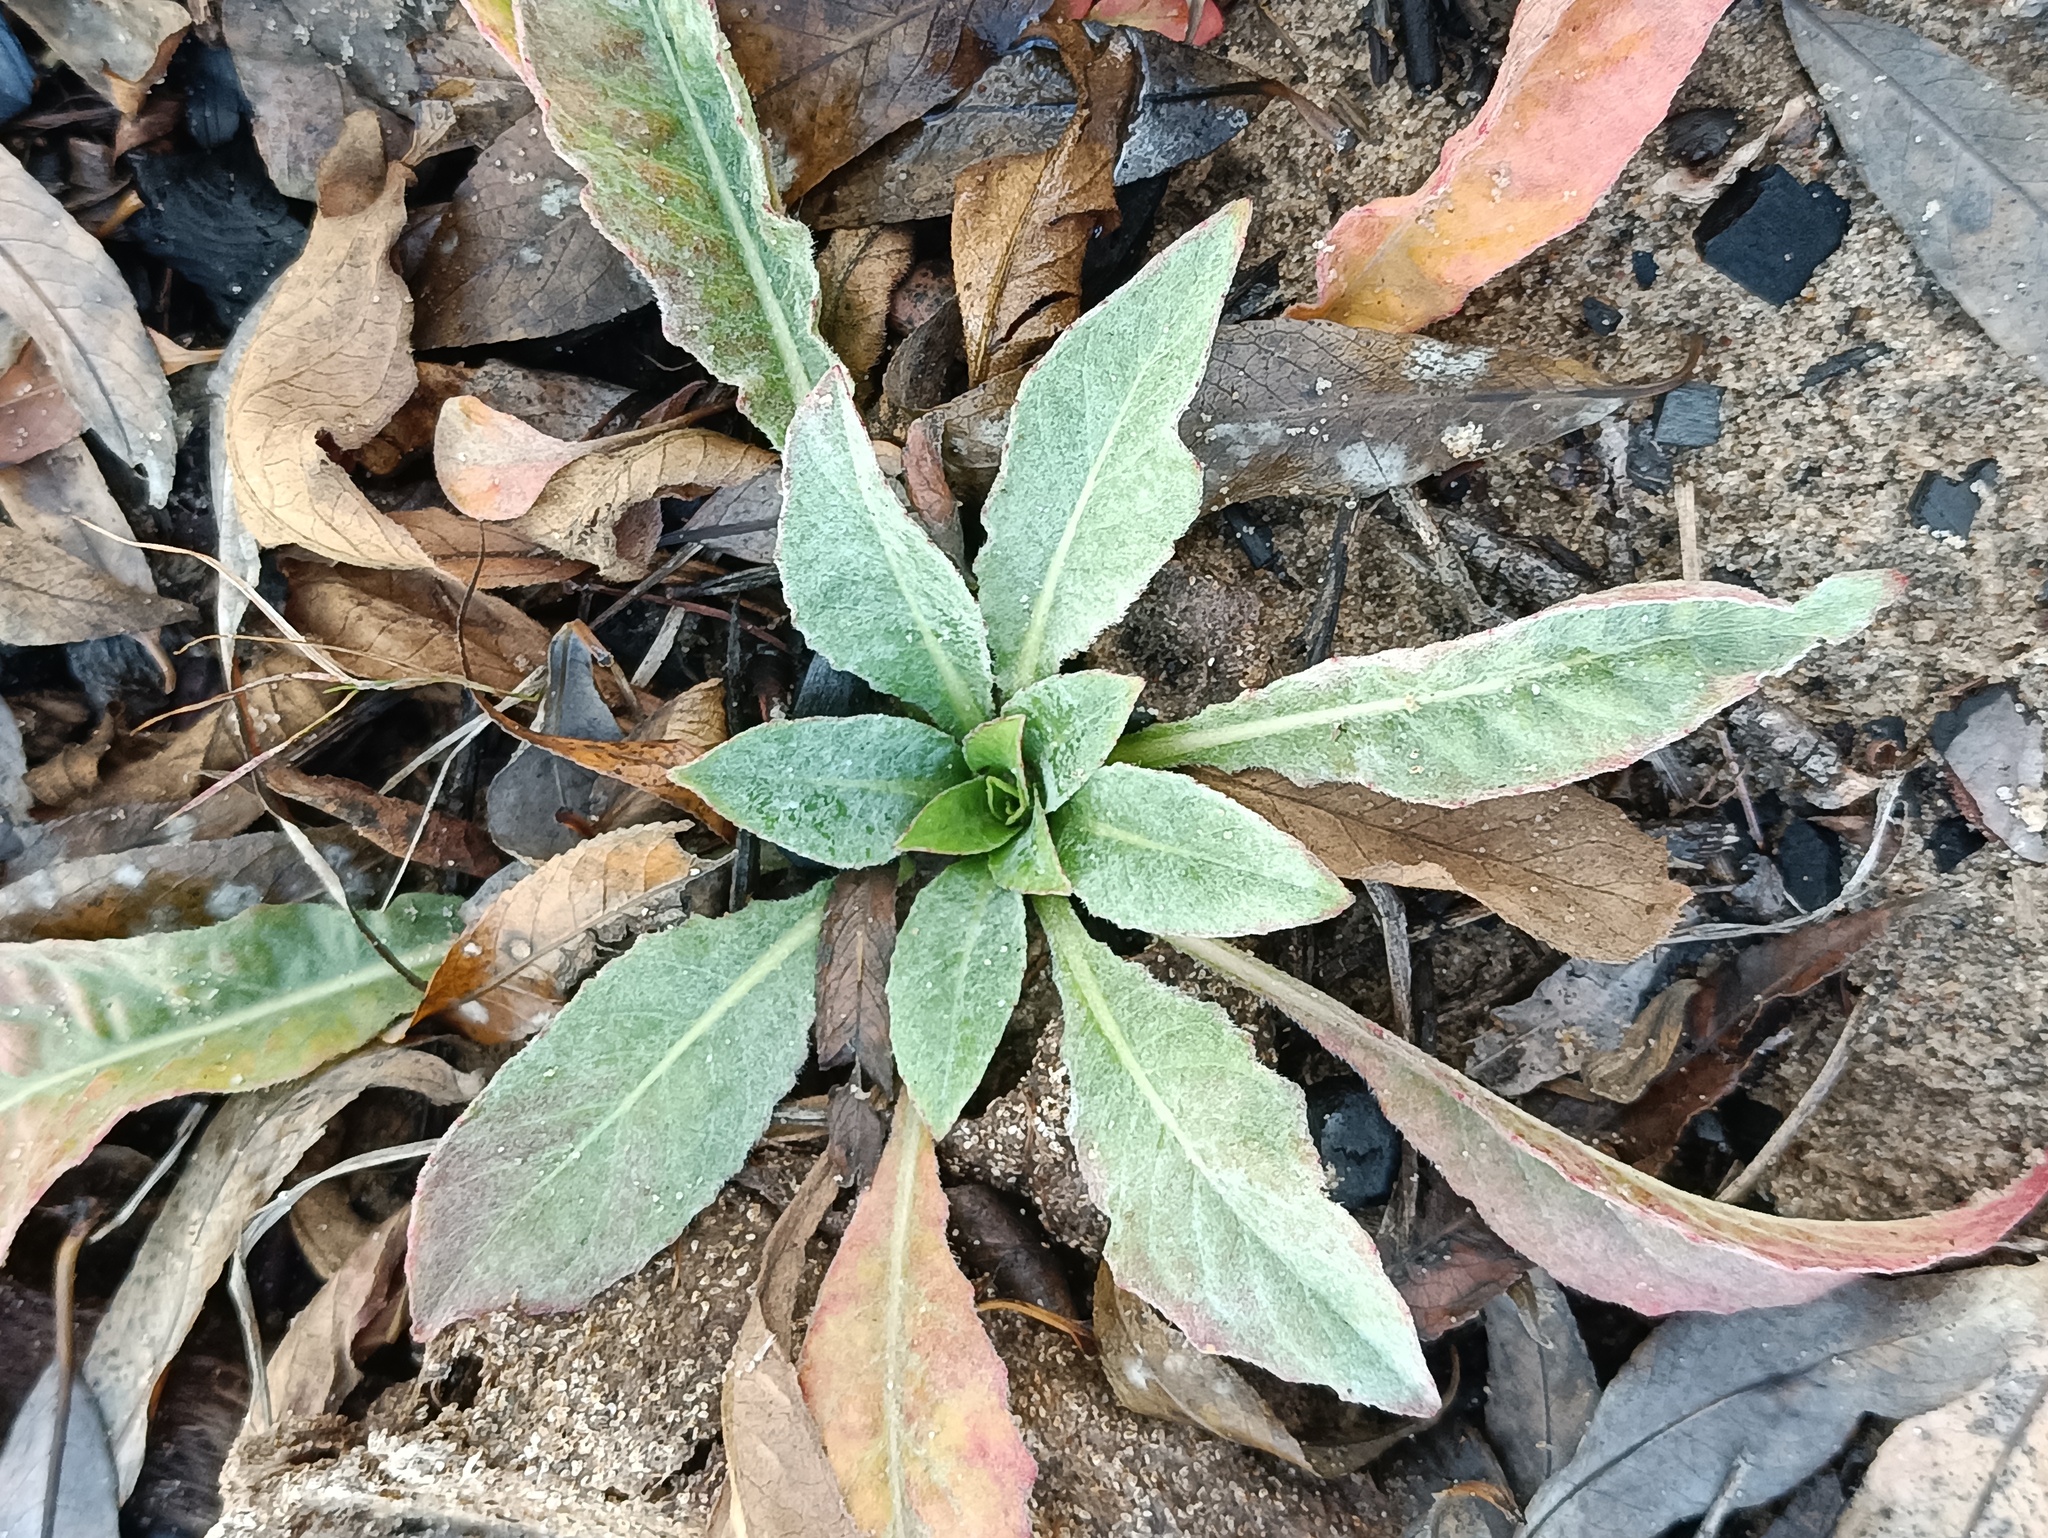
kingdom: Plantae
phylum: Tracheophyta
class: Magnoliopsida
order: Myrtales
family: Onagraceae
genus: Oenothera
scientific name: Oenothera
